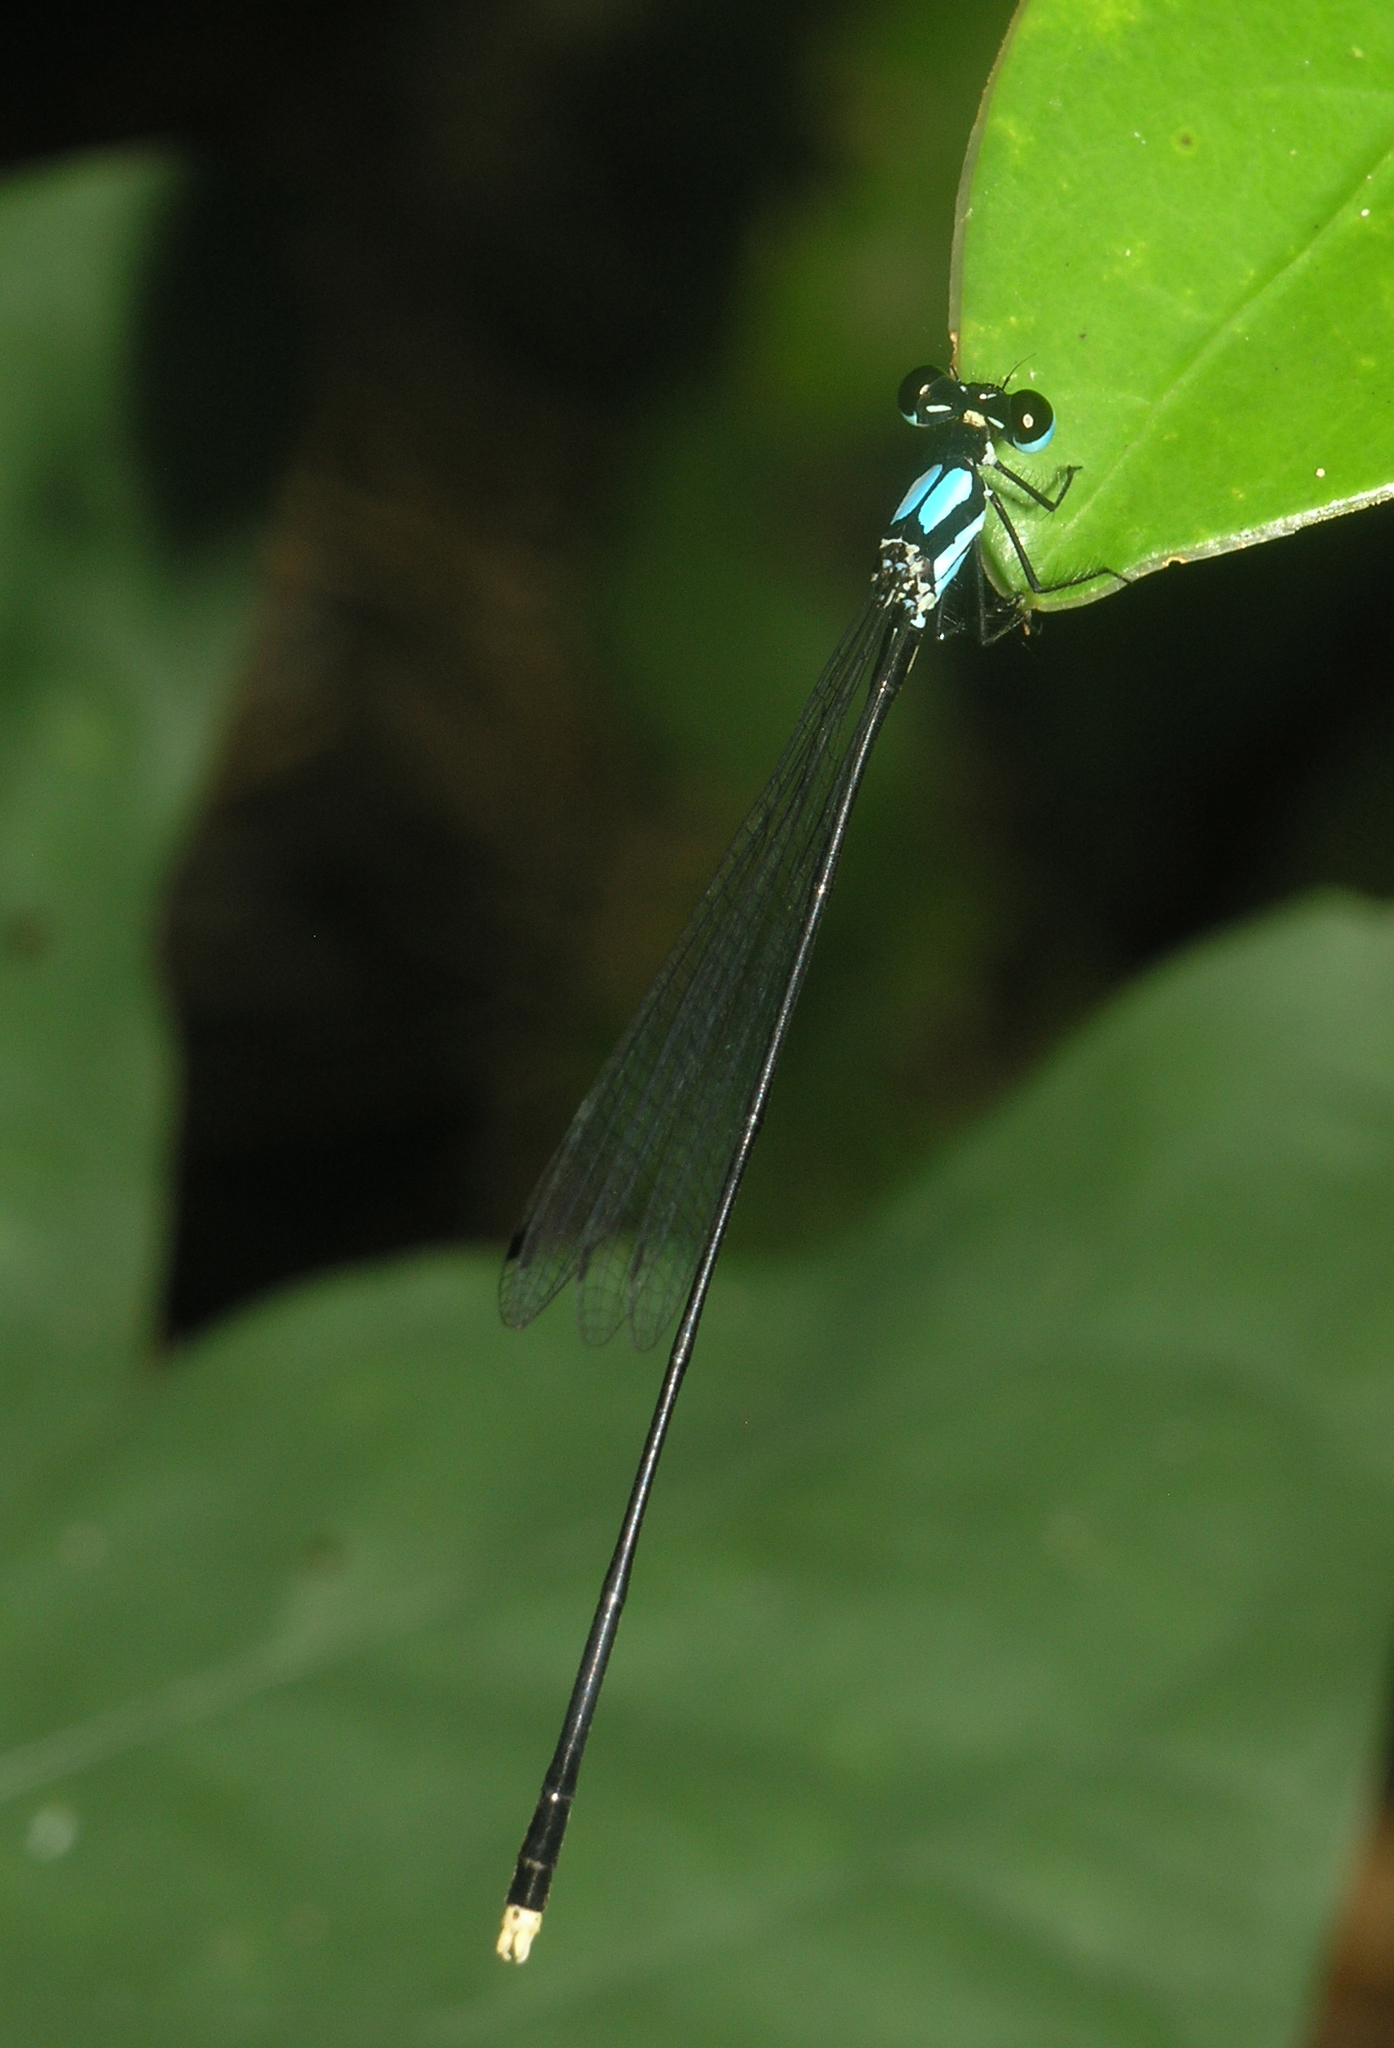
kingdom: Animalia
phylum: Arthropoda
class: Insecta
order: Odonata
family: Platycnemididae
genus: Coeliccia
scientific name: Coeliccia poungyi
